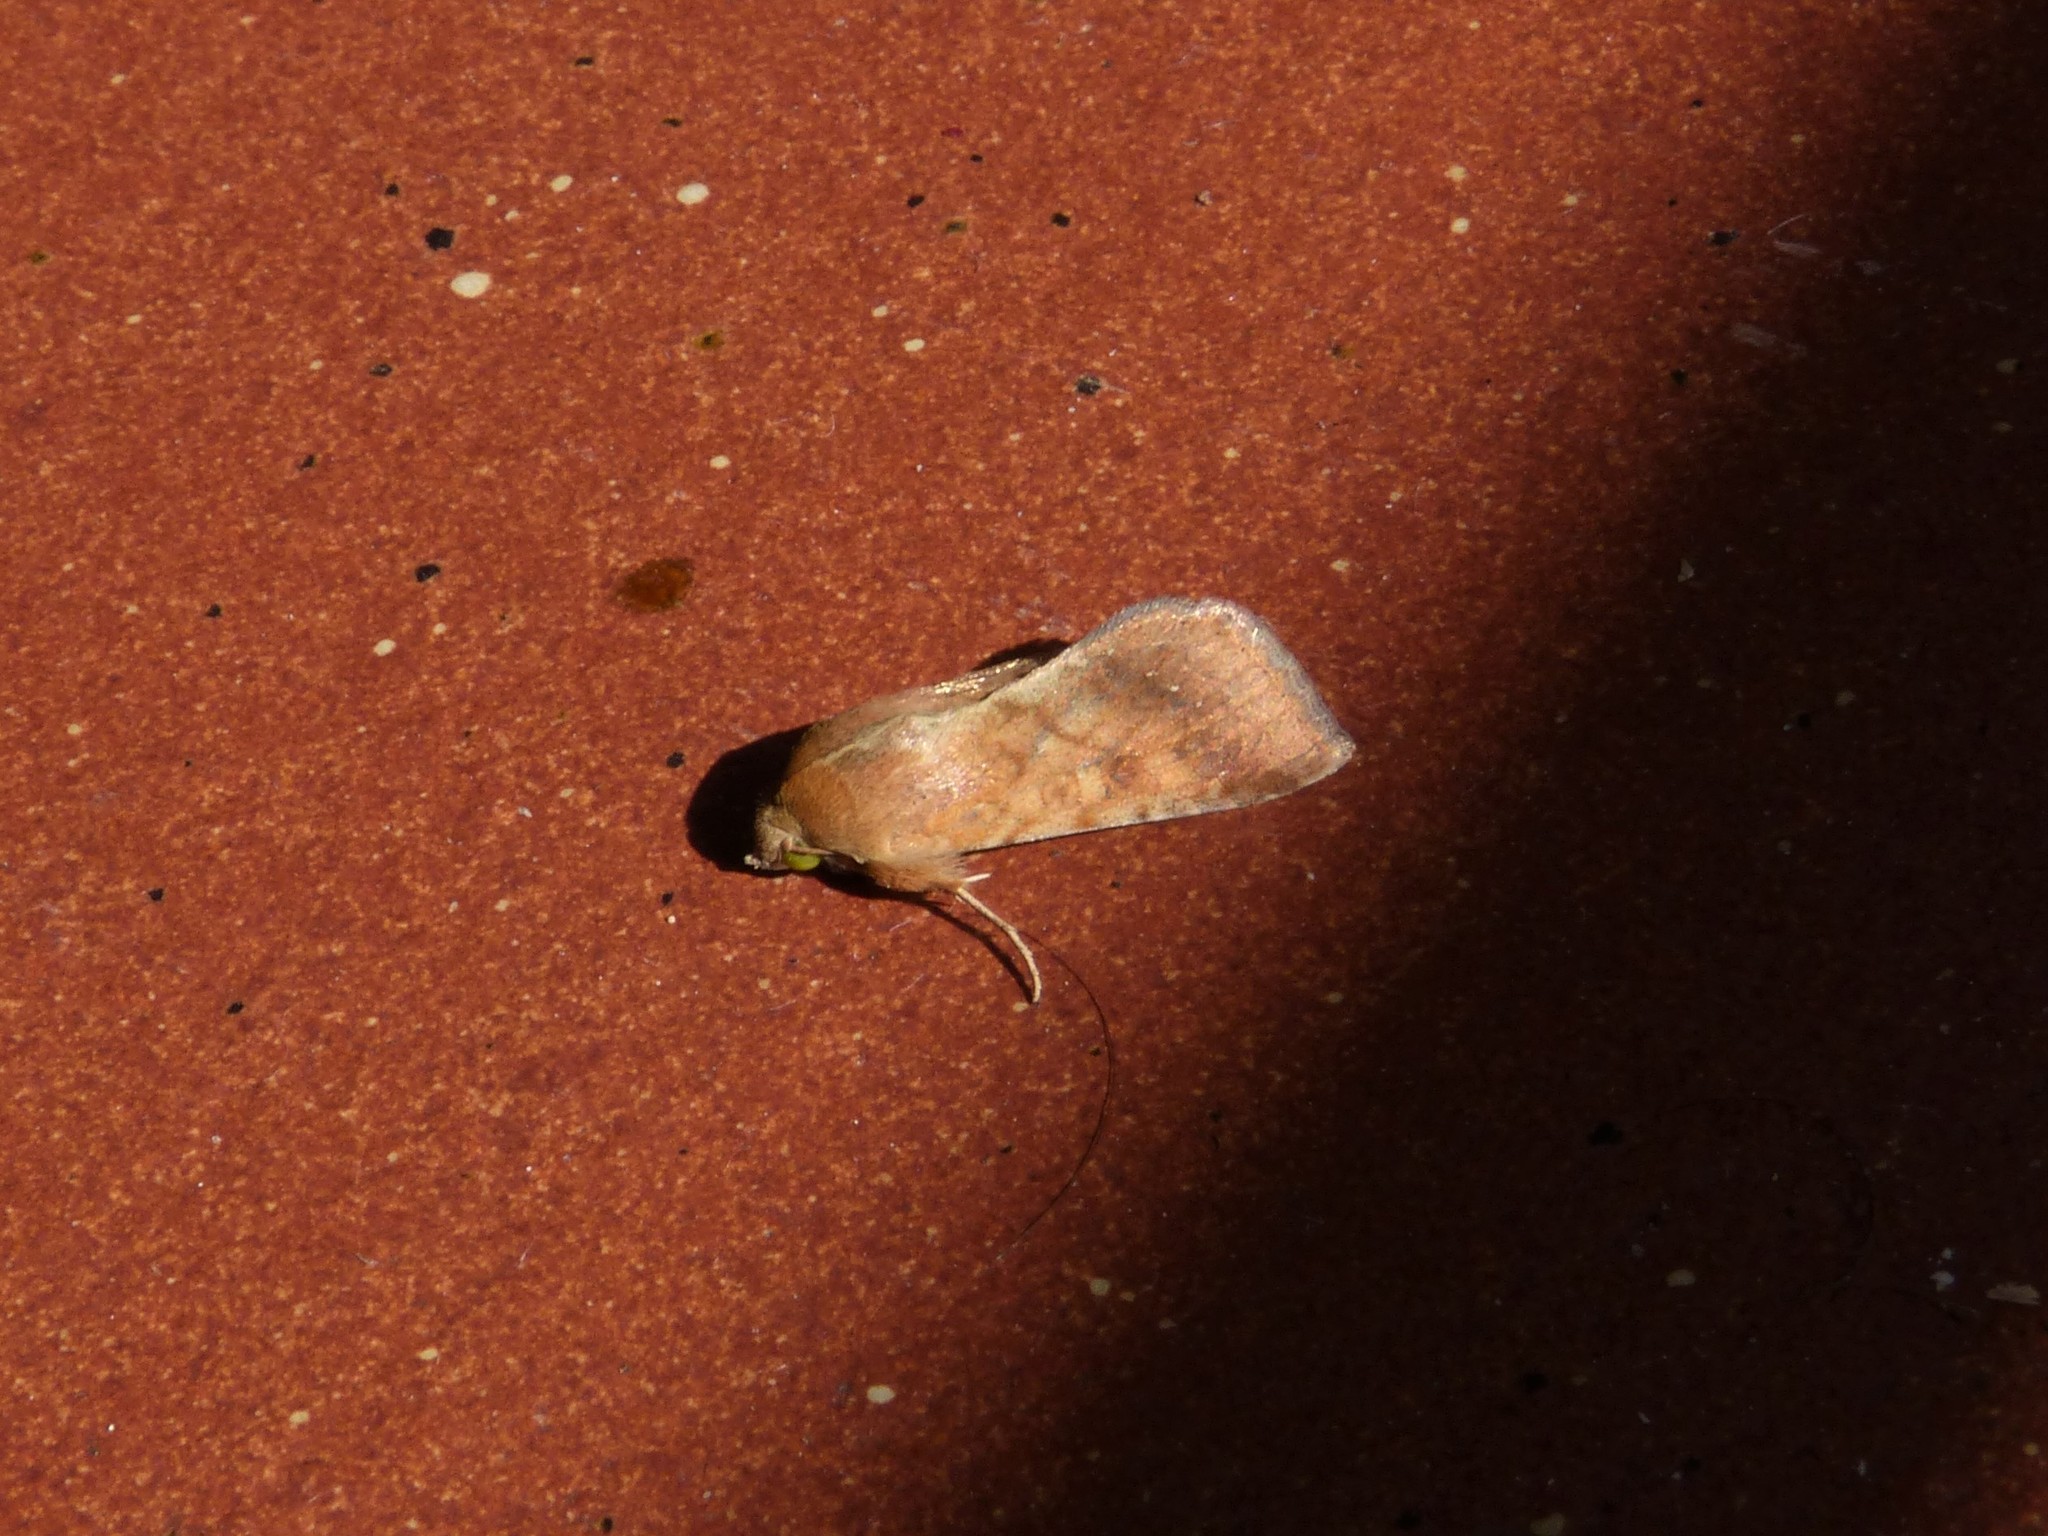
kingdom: Animalia
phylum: Arthropoda
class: Insecta
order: Lepidoptera
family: Noctuidae
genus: Helicoverpa
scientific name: Helicoverpa armigera
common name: Cotton bollworm
